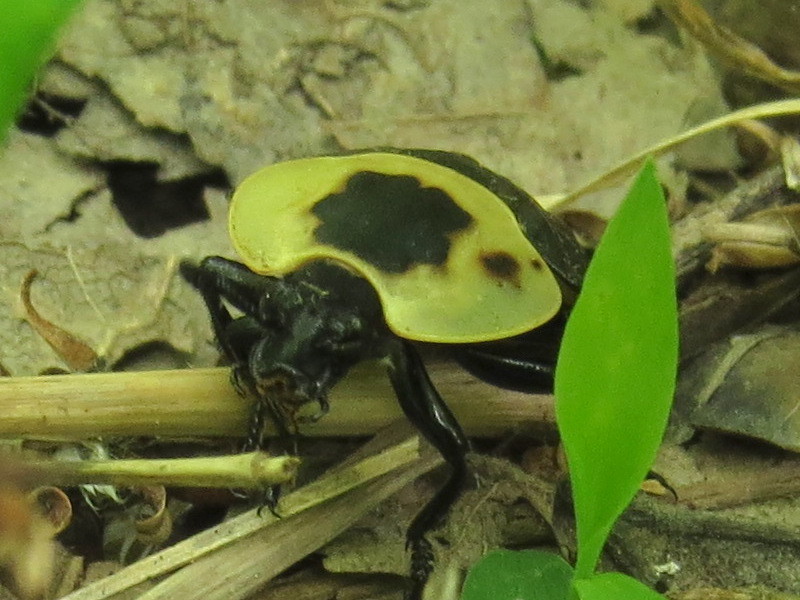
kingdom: Animalia
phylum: Arthropoda
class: Insecta
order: Coleoptera
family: Staphylinidae
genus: Necrophila
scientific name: Necrophila americana
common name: American carrion beetle
